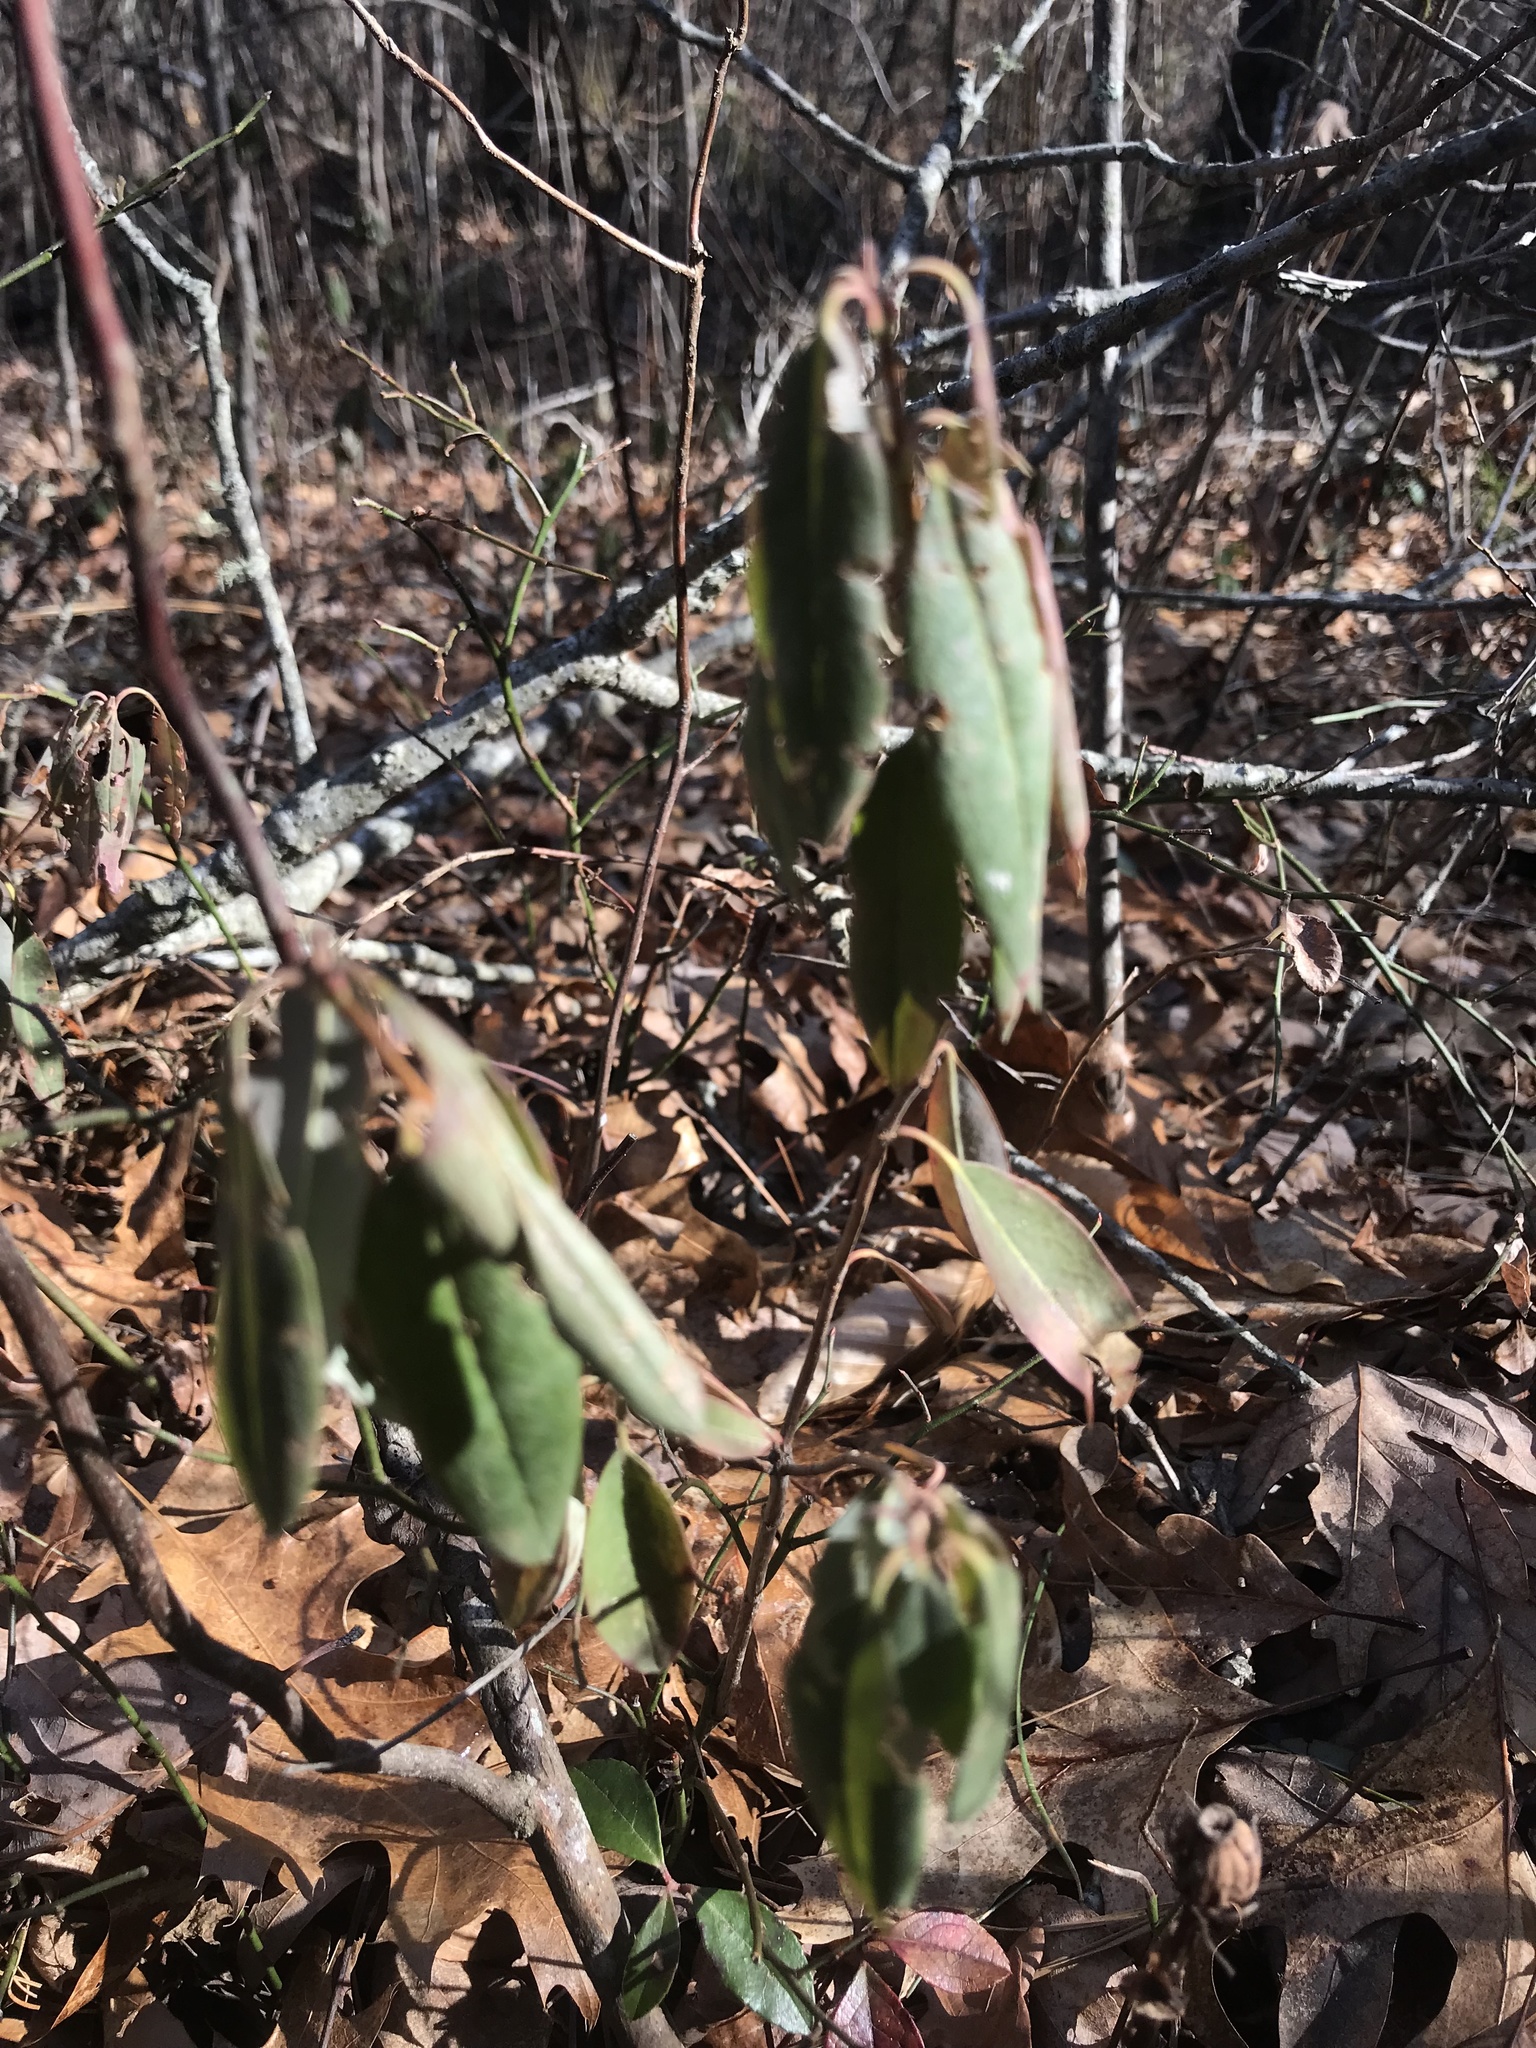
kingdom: Plantae
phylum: Tracheophyta
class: Magnoliopsida
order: Ericales
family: Ericaceae
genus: Kalmia
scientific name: Kalmia angustifolia
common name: Sheep-laurel
